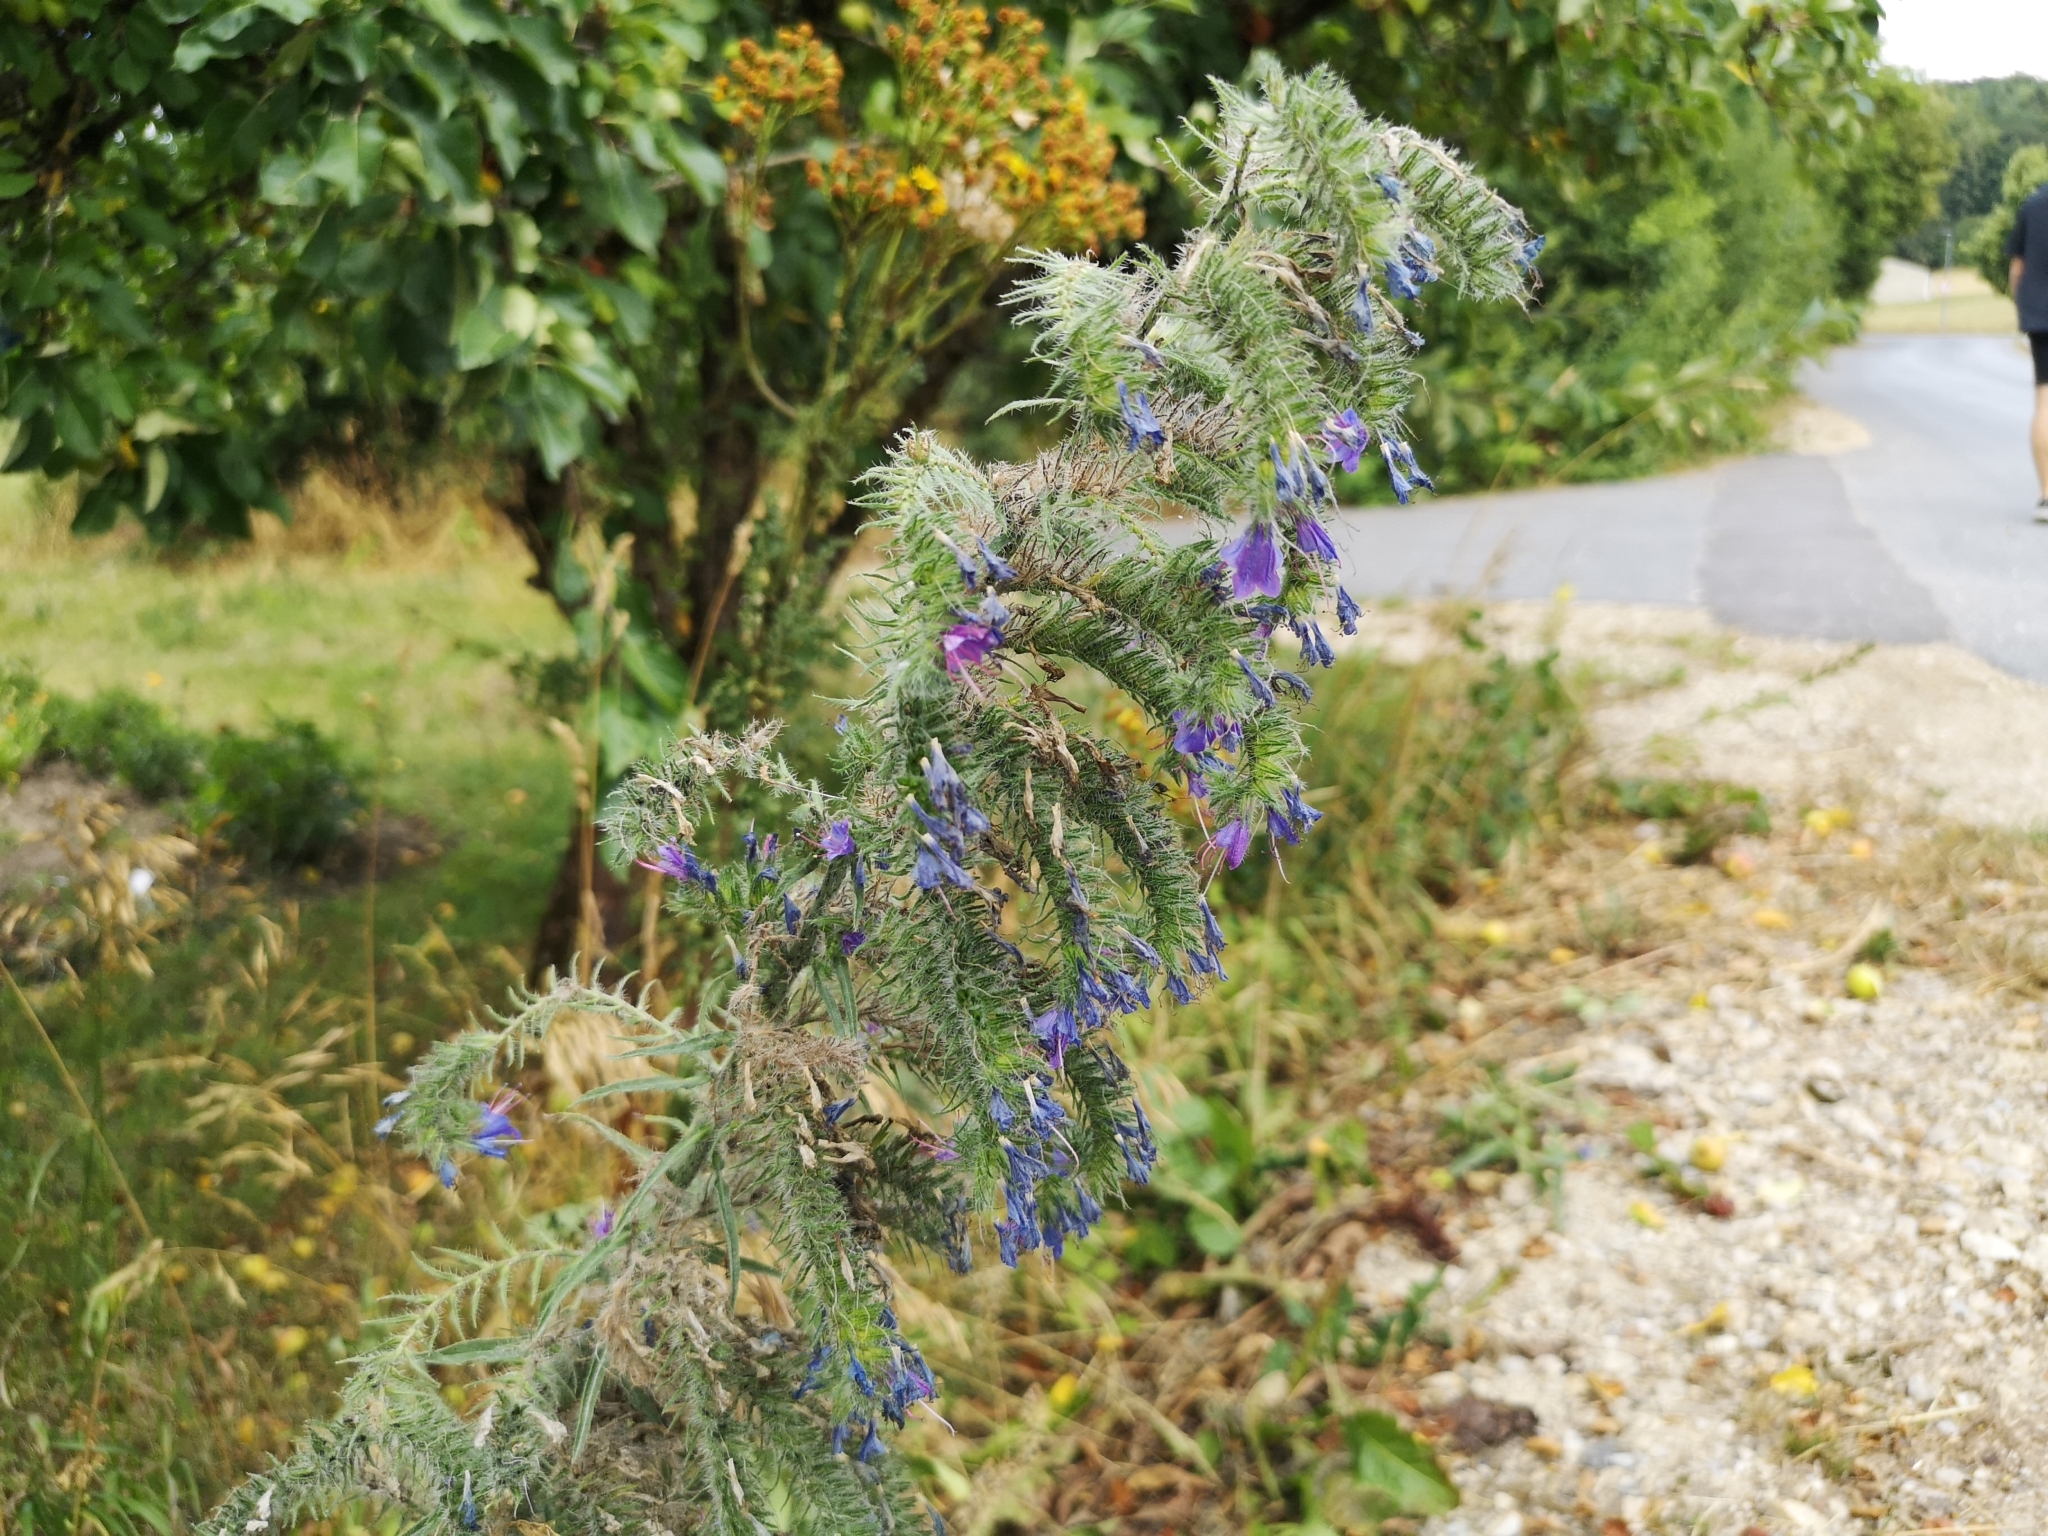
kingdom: Plantae
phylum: Tracheophyta
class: Magnoliopsida
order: Boraginales
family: Boraginaceae
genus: Echium
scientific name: Echium vulgare
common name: Common viper's bugloss
